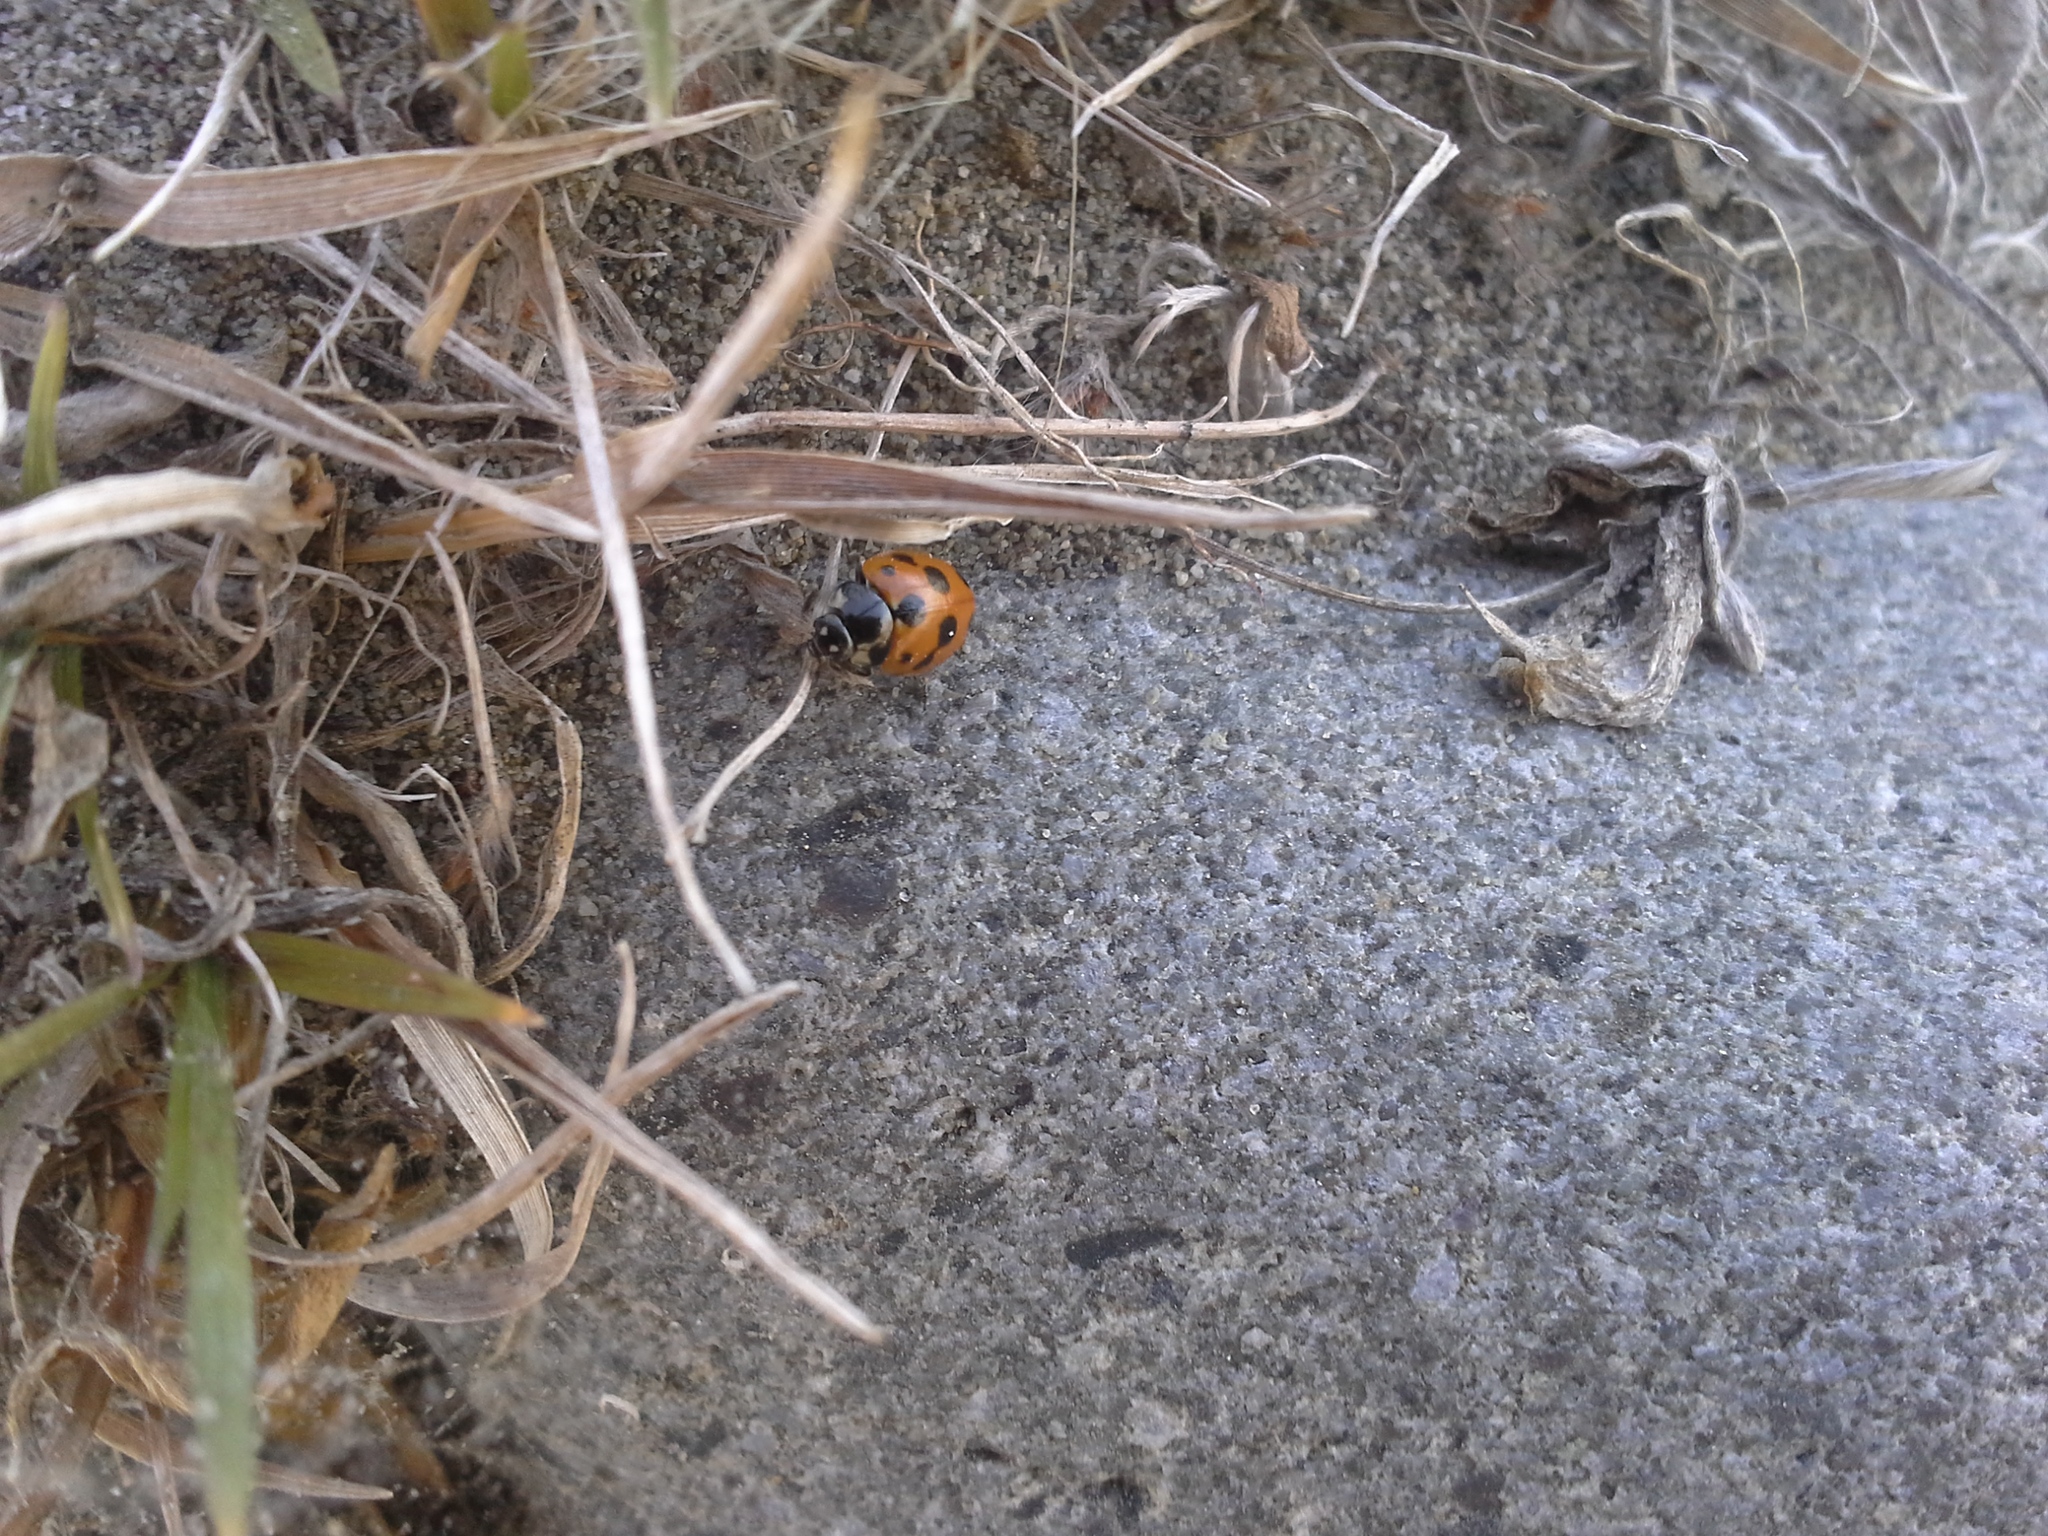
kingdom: Animalia
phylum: Arthropoda
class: Insecta
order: Coleoptera
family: Coccinellidae
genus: Coccinella
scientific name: Coccinella undecimpunctata
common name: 11-spot ladybird
